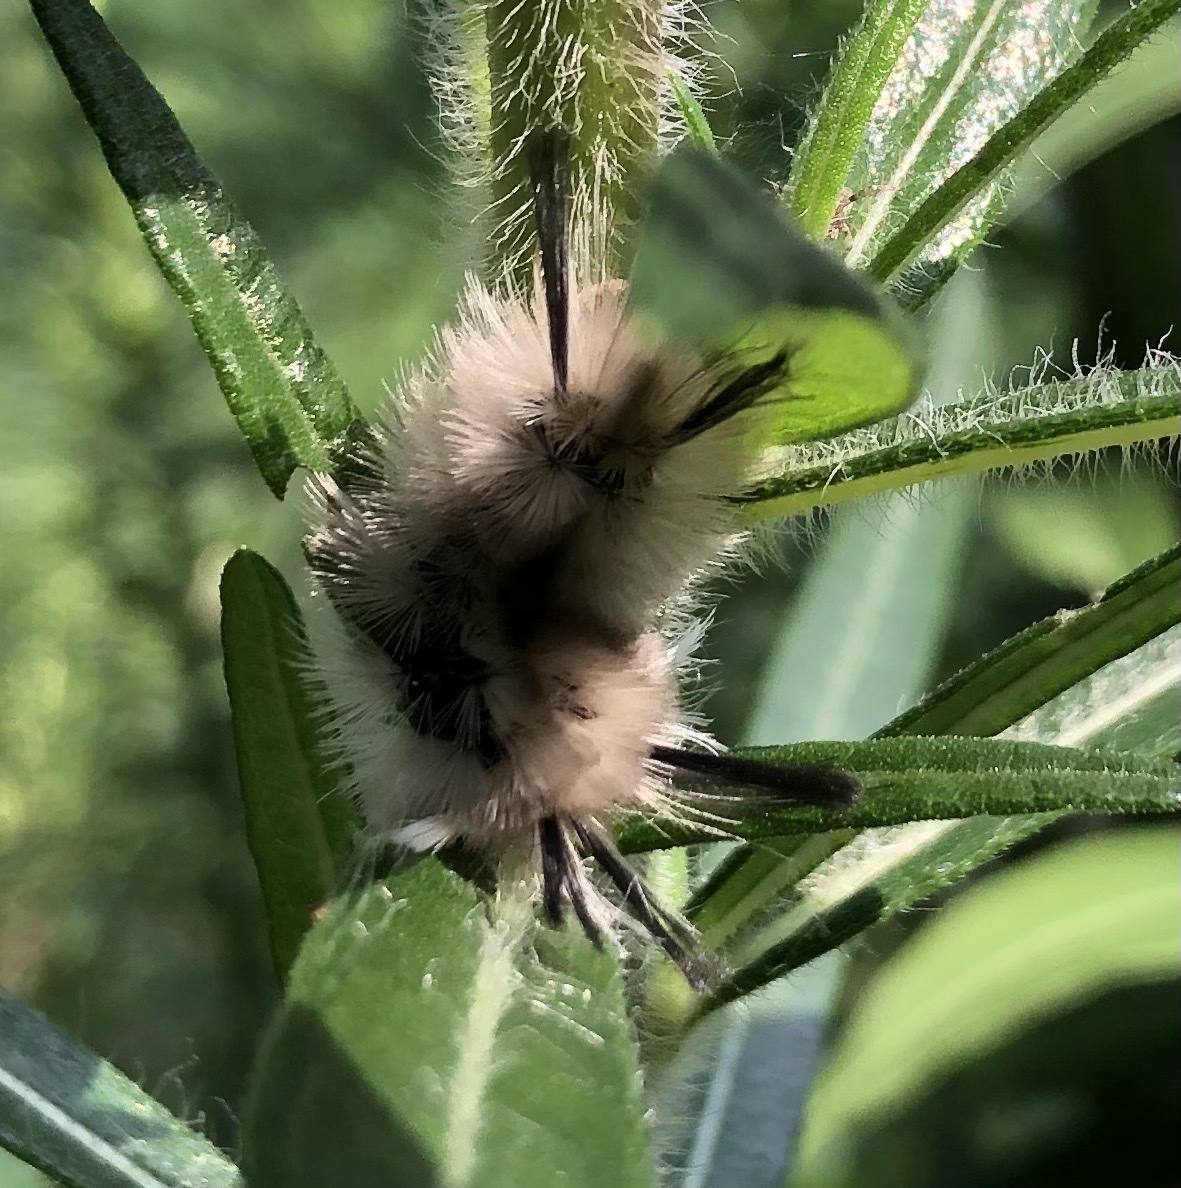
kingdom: Animalia
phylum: Arthropoda
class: Insecta
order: Lepidoptera
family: Erebidae
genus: Halysidota
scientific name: Halysidota tessellaris
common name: Banded tussock moth
